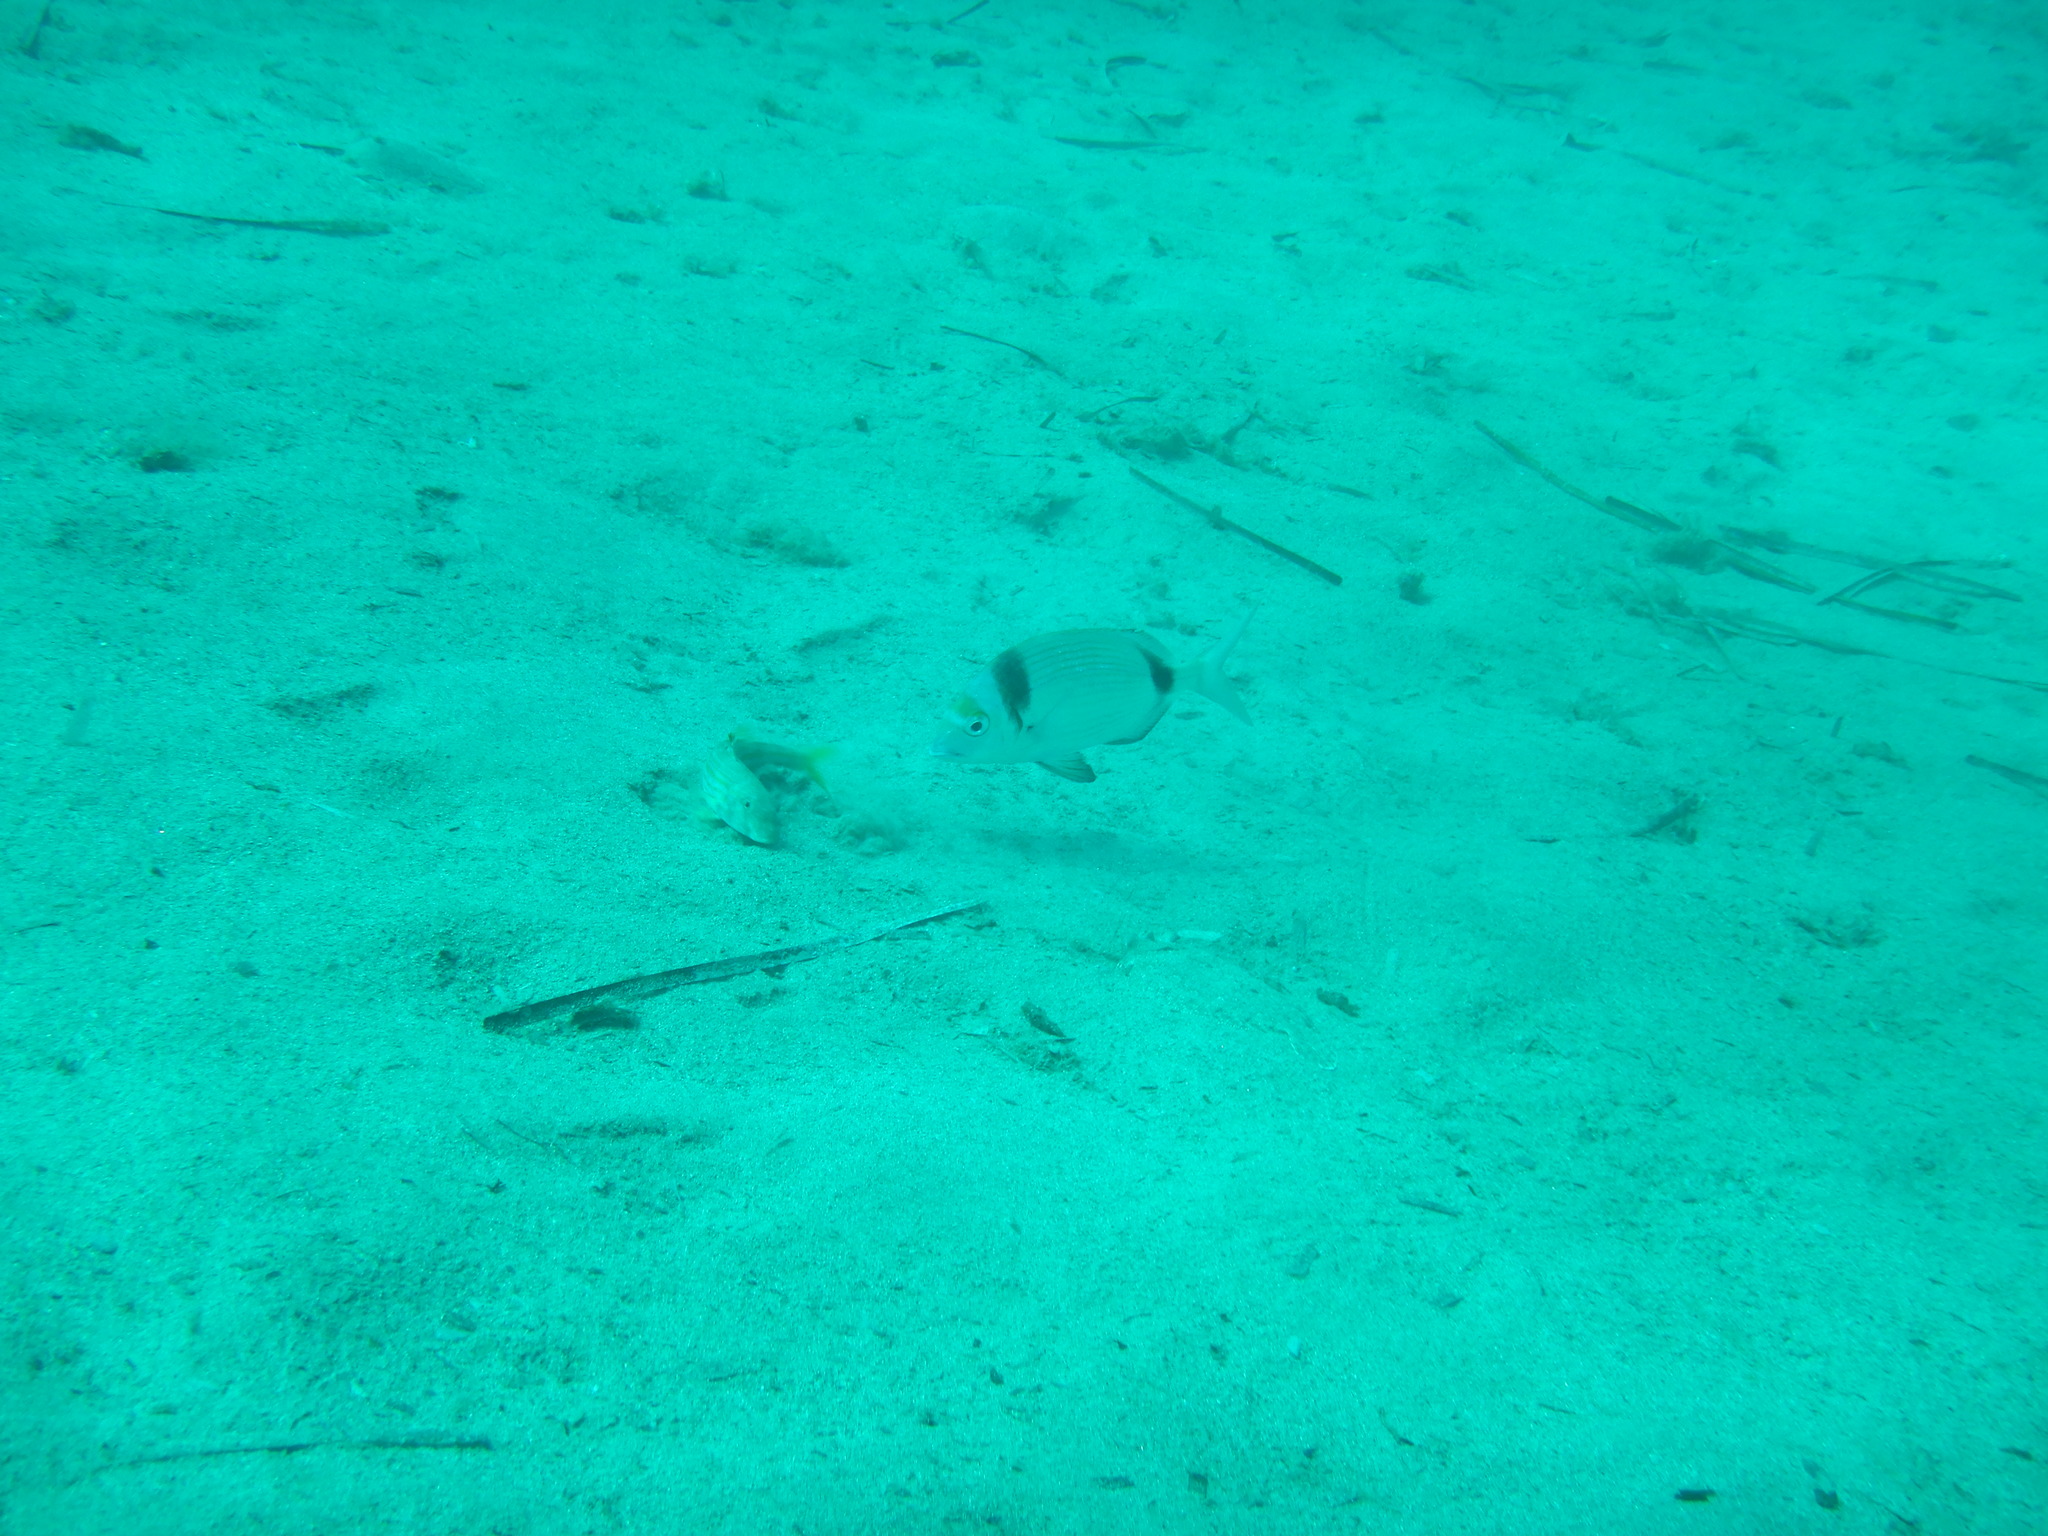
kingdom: Animalia
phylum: Chordata
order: Perciformes
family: Sparidae
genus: Diplodus
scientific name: Diplodus vulgaris
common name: Common two-banded seabream
